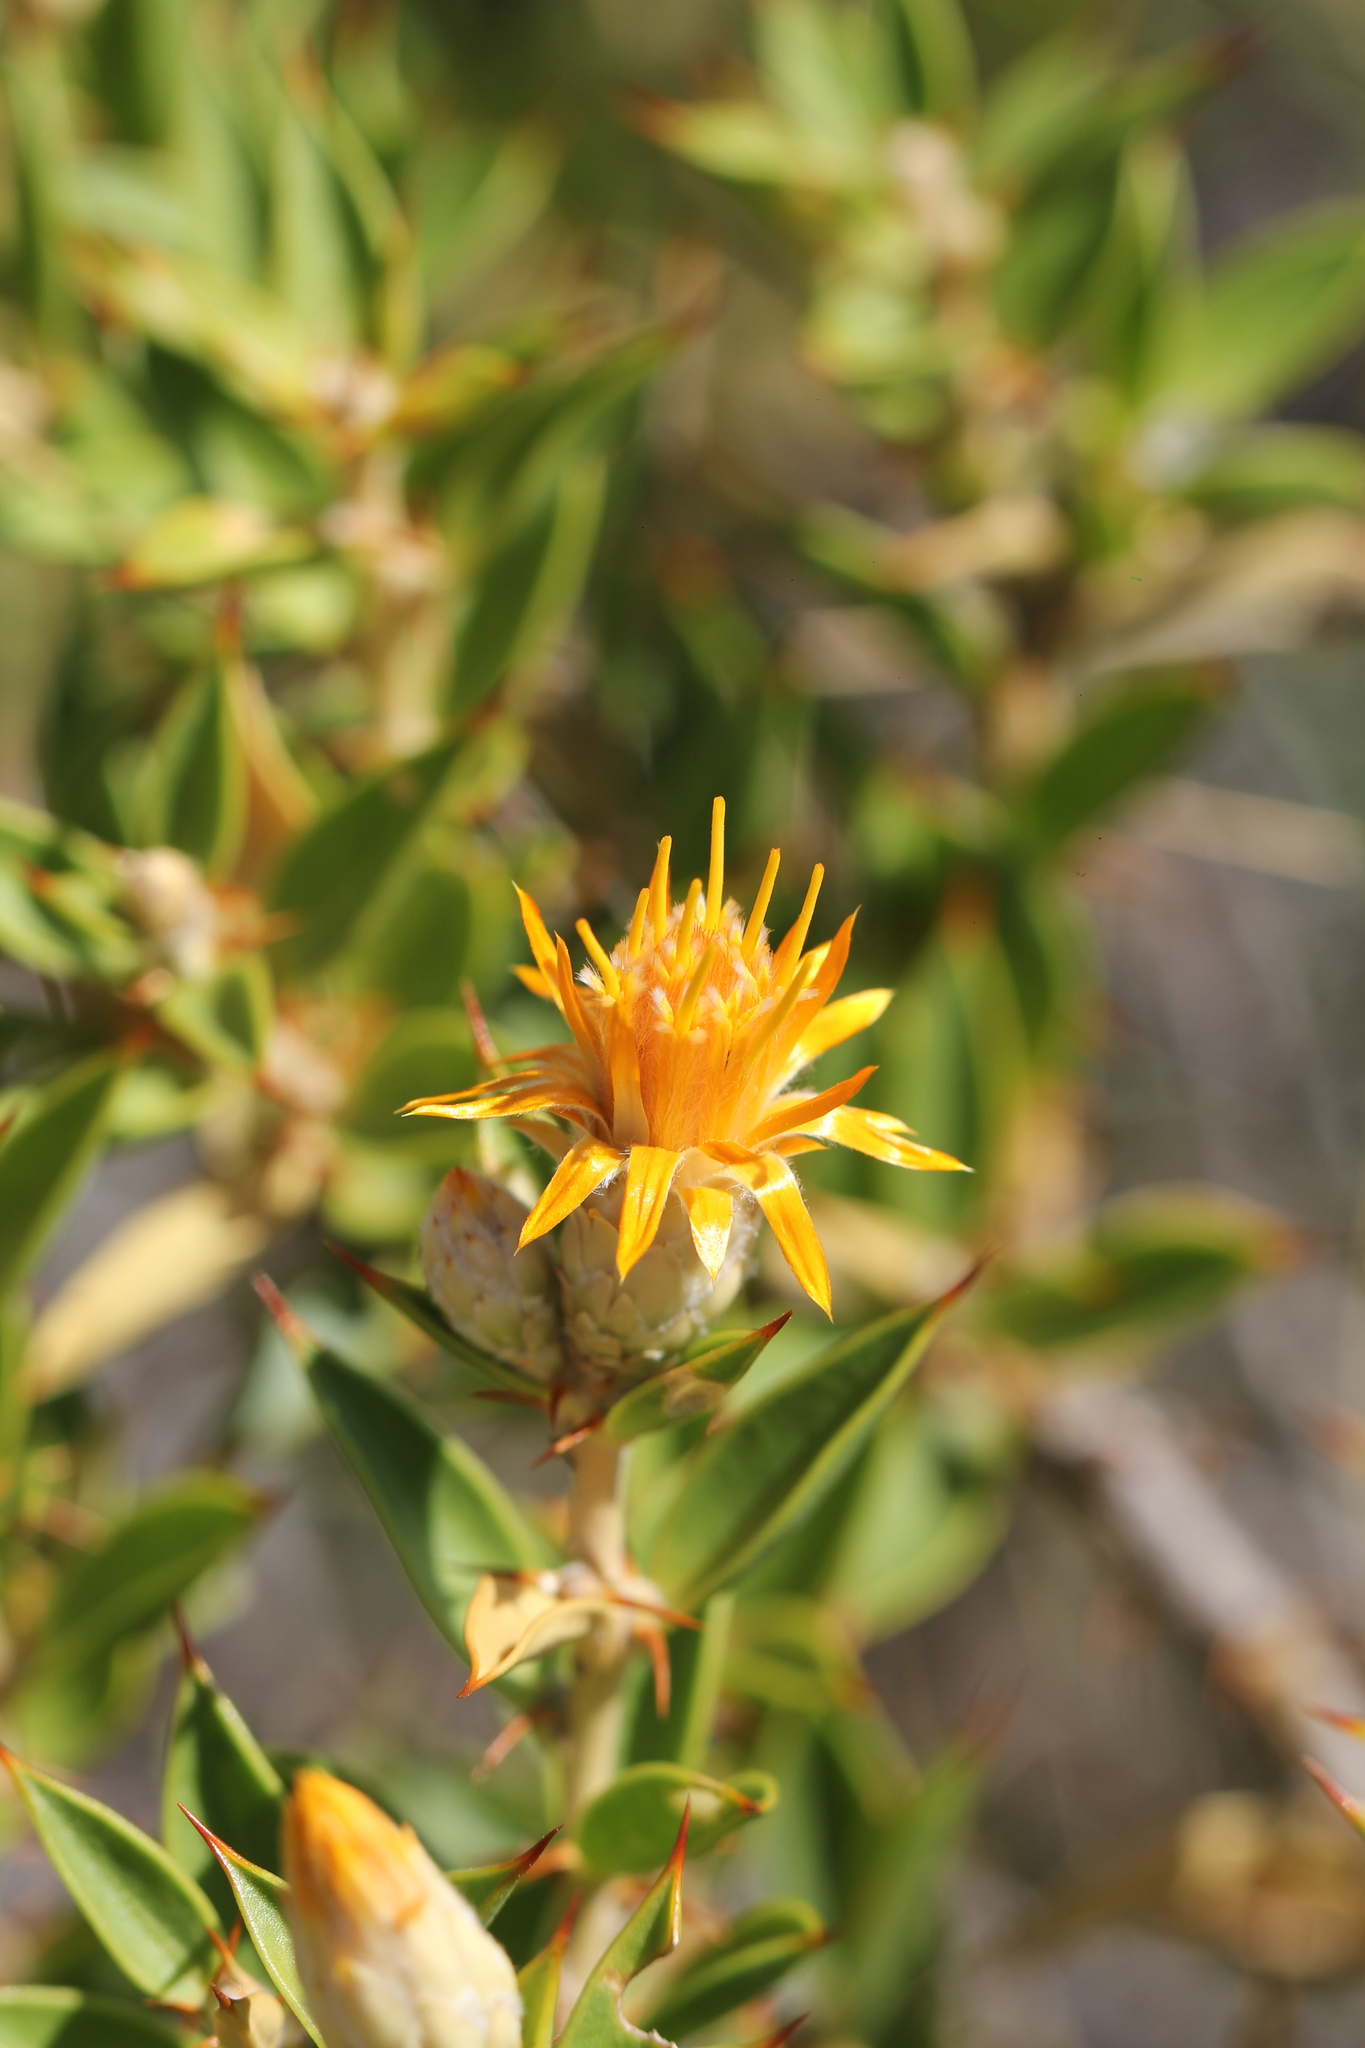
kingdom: Plantae
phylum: Tracheophyta
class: Magnoliopsida
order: Asterales
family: Asteraceae
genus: Chuquiraga
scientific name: Chuquiraga avellanedae
